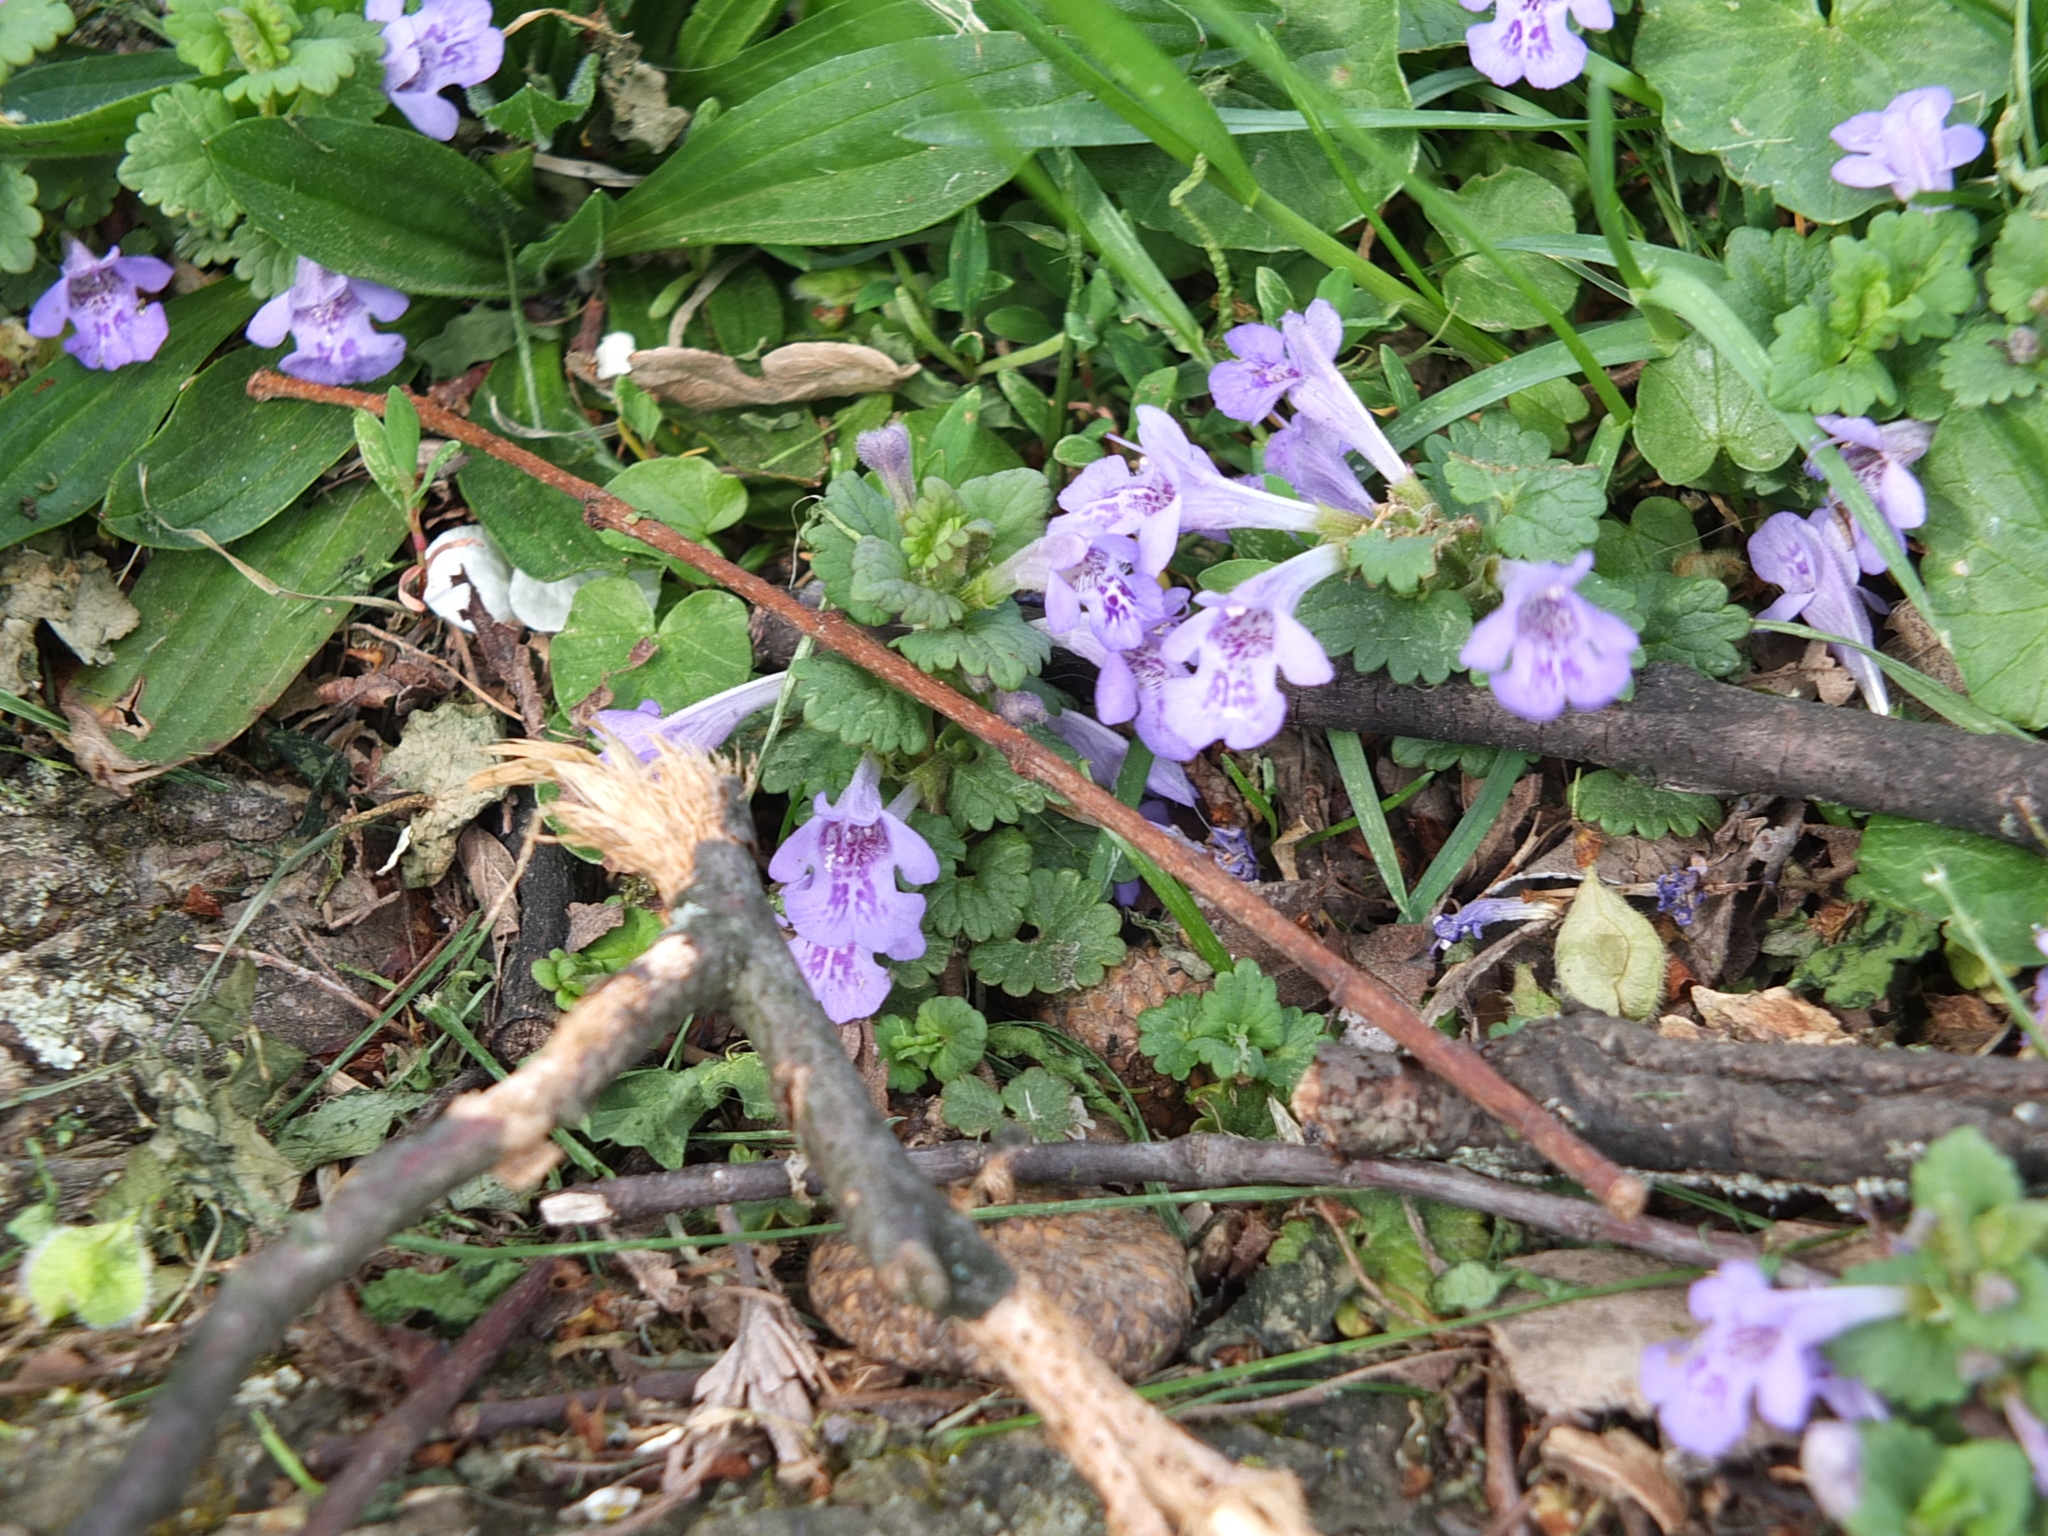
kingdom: Plantae
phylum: Tracheophyta
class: Magnoliopsida
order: Lamiales
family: Lamiaceae
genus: Glechoma
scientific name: Glechoma hederacea
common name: Ground ivy
